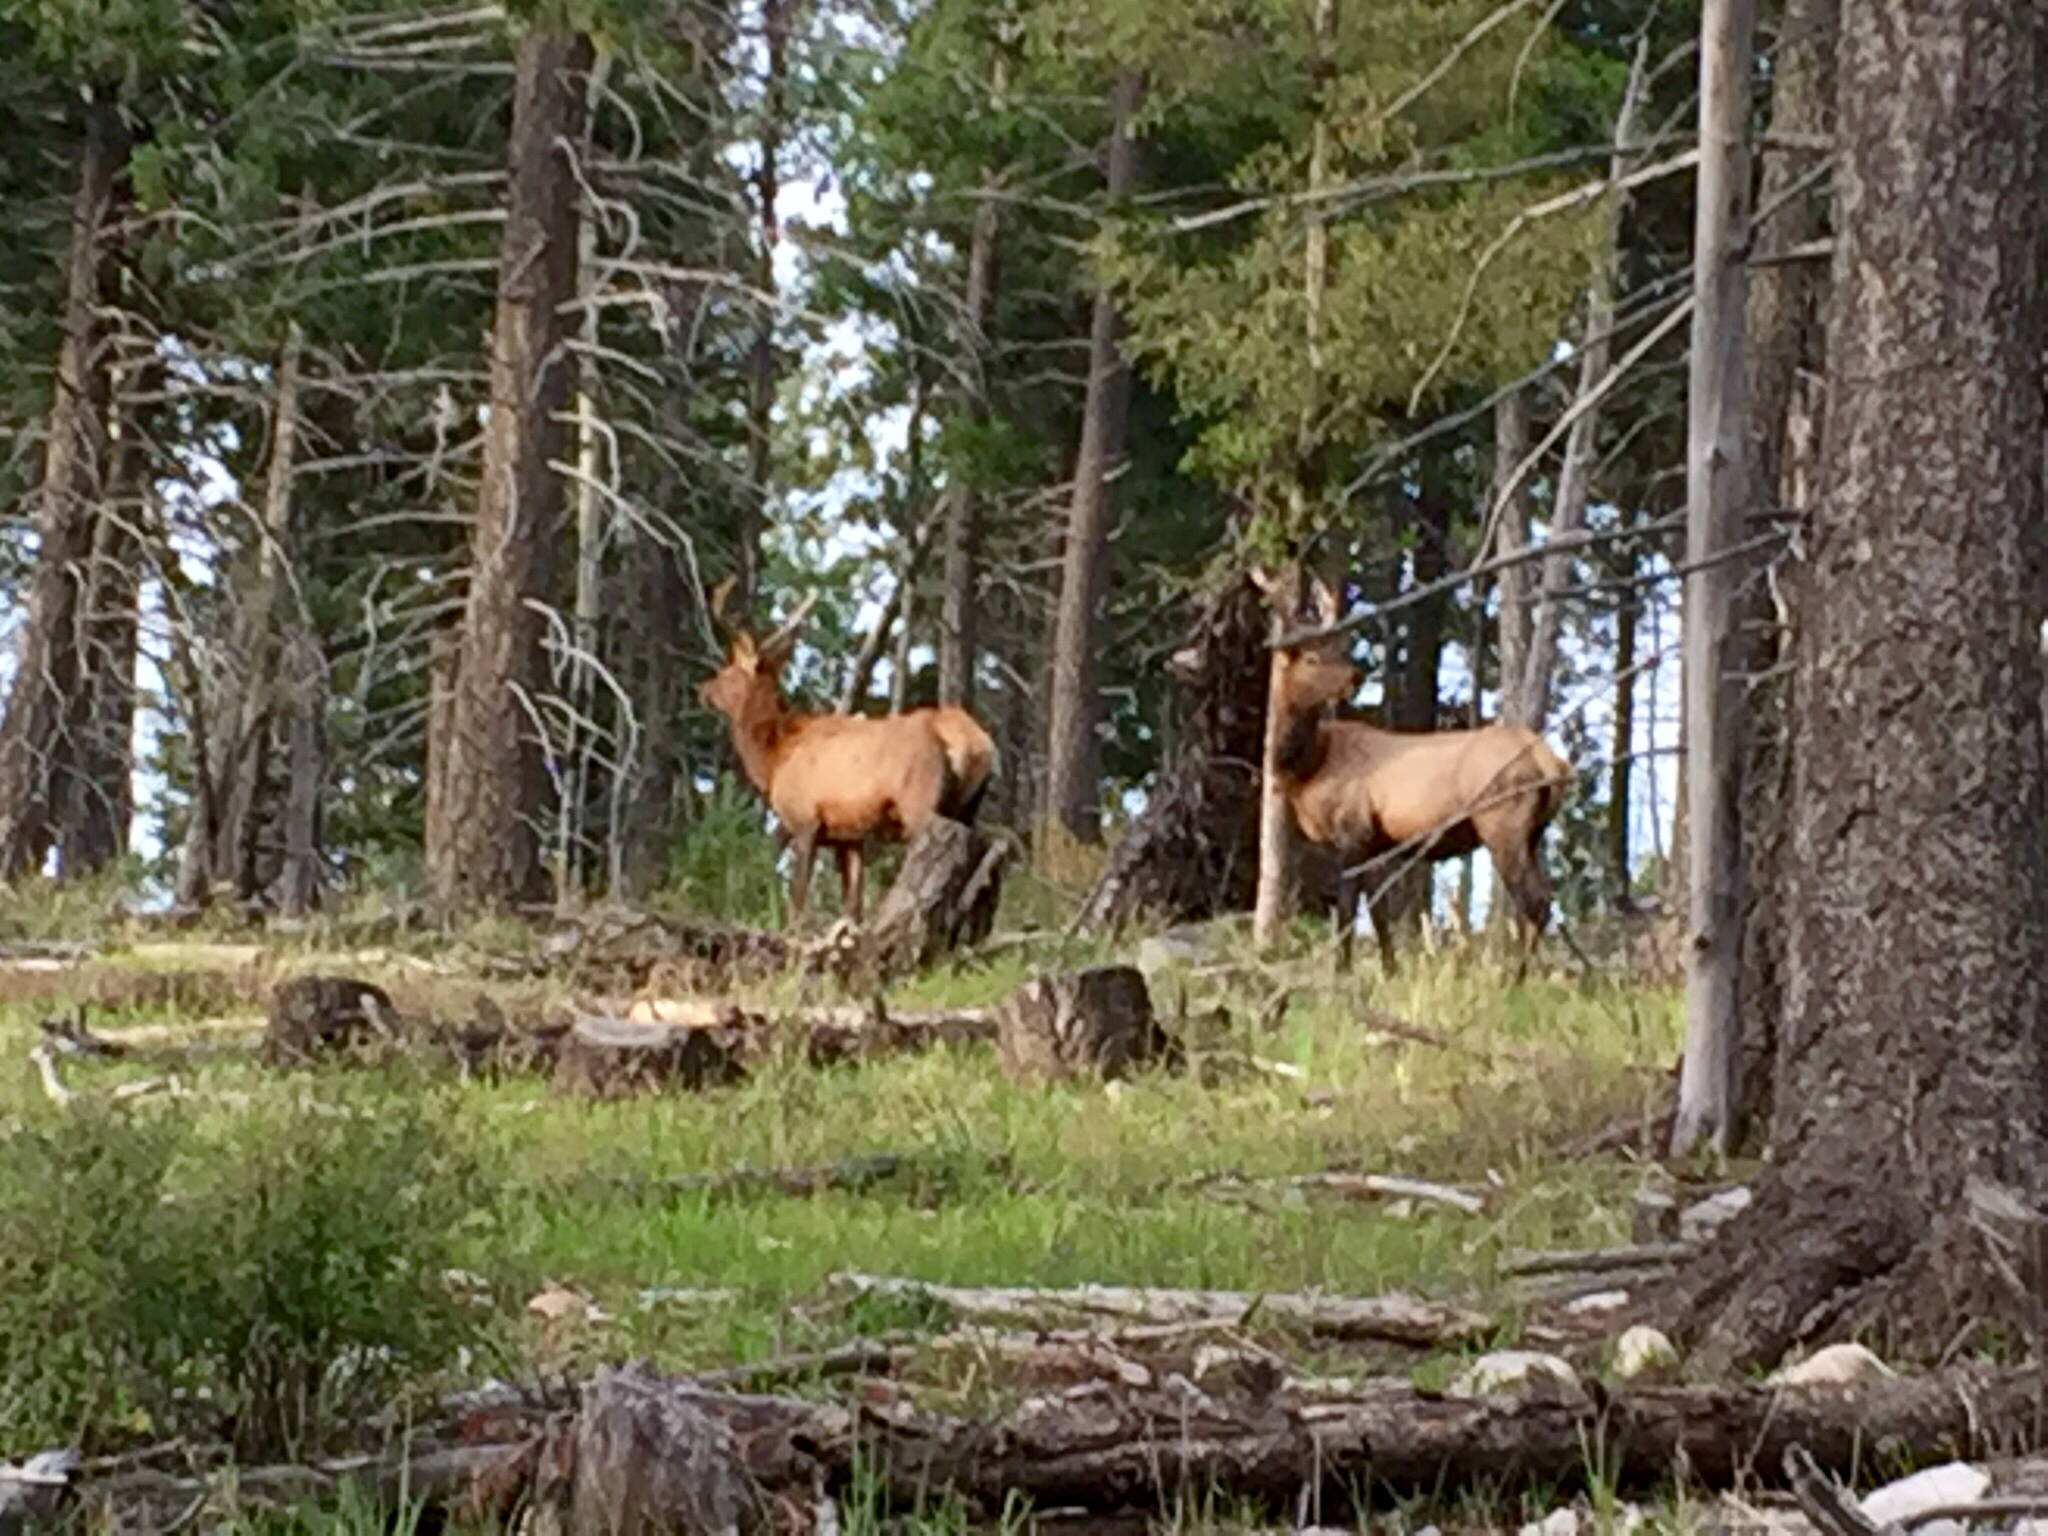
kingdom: Animalia
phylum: Chordata
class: Mammalia
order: Artiodactyla
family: Cervidae
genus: Cervus
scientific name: Cervus elaphus
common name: Red deer
